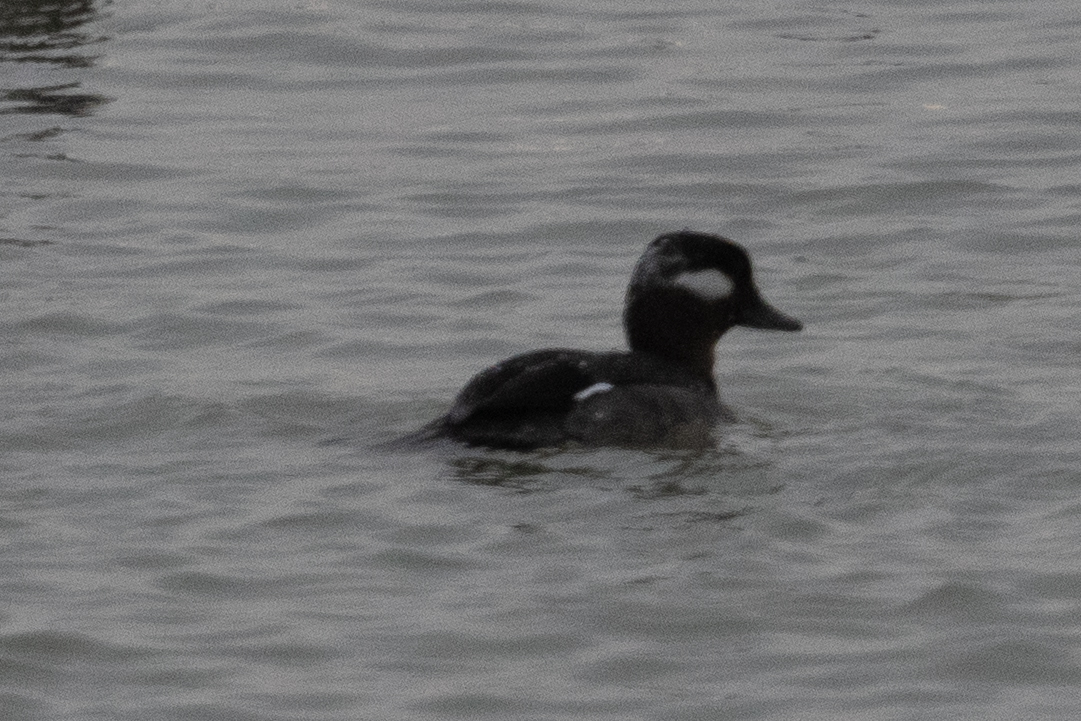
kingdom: Animalia
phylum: Chordata
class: Aves
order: Anseriformes
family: Anatidae
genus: Bucephala
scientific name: Bucephala albeola
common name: Bufflehead
